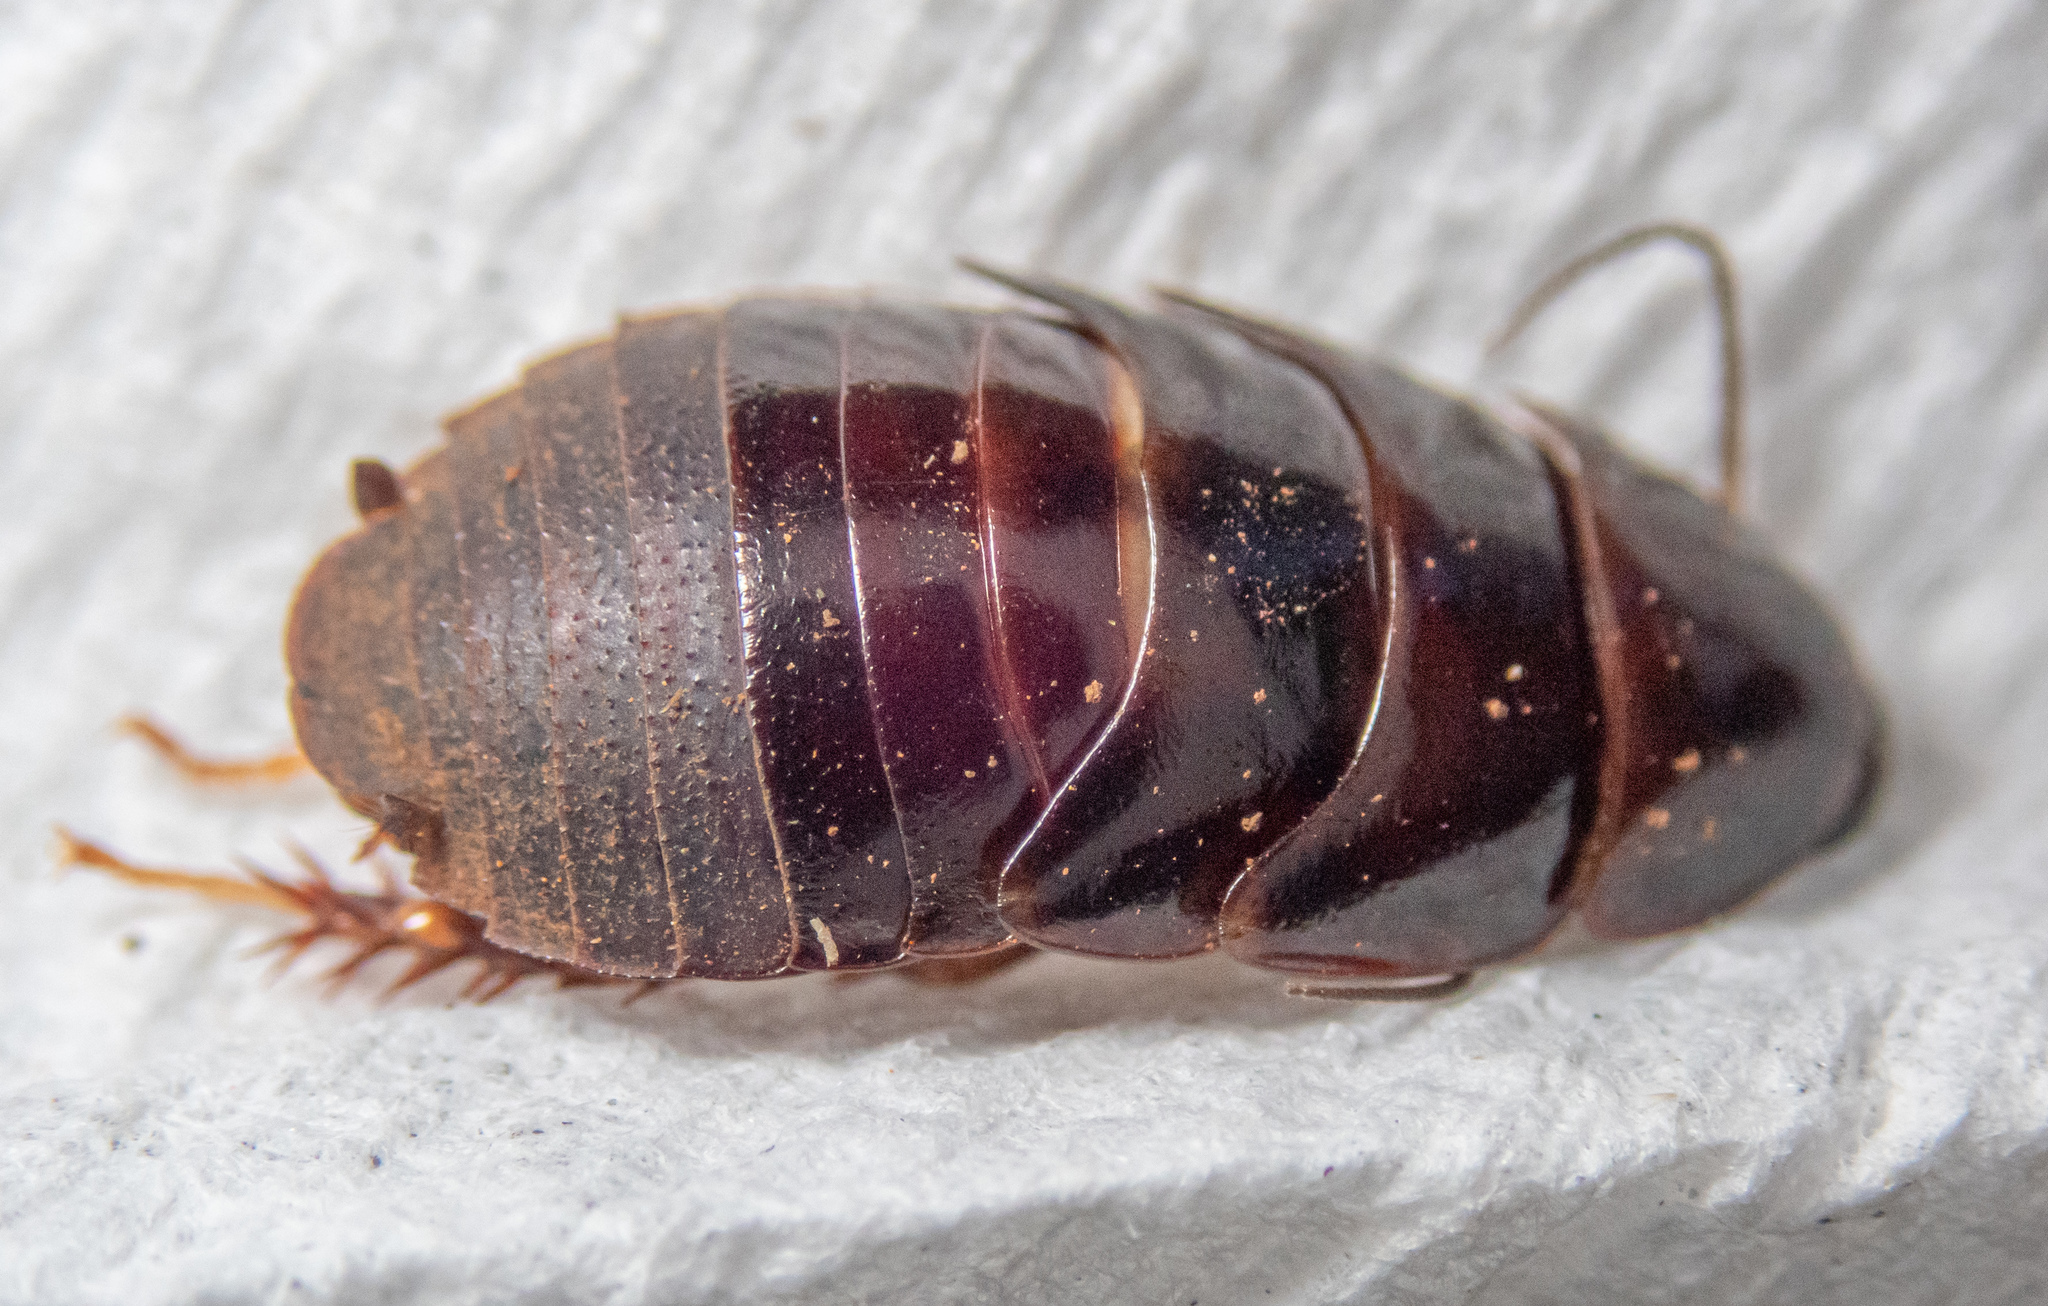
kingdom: Animalia
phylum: Arthropoda
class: Insecta
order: Blattodea
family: Blaberidae
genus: Pycnoscelus
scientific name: Pycnoscelus surinamensis
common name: Surinam cockroach
